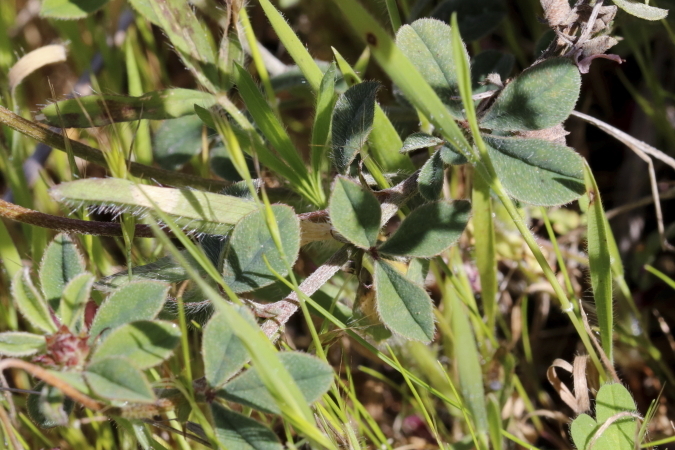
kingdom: Plantae
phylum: Tracheophyta
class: Magnoliopsida
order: Fabales
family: Fabaceae
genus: Indigofera
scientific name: Indigofera incana
